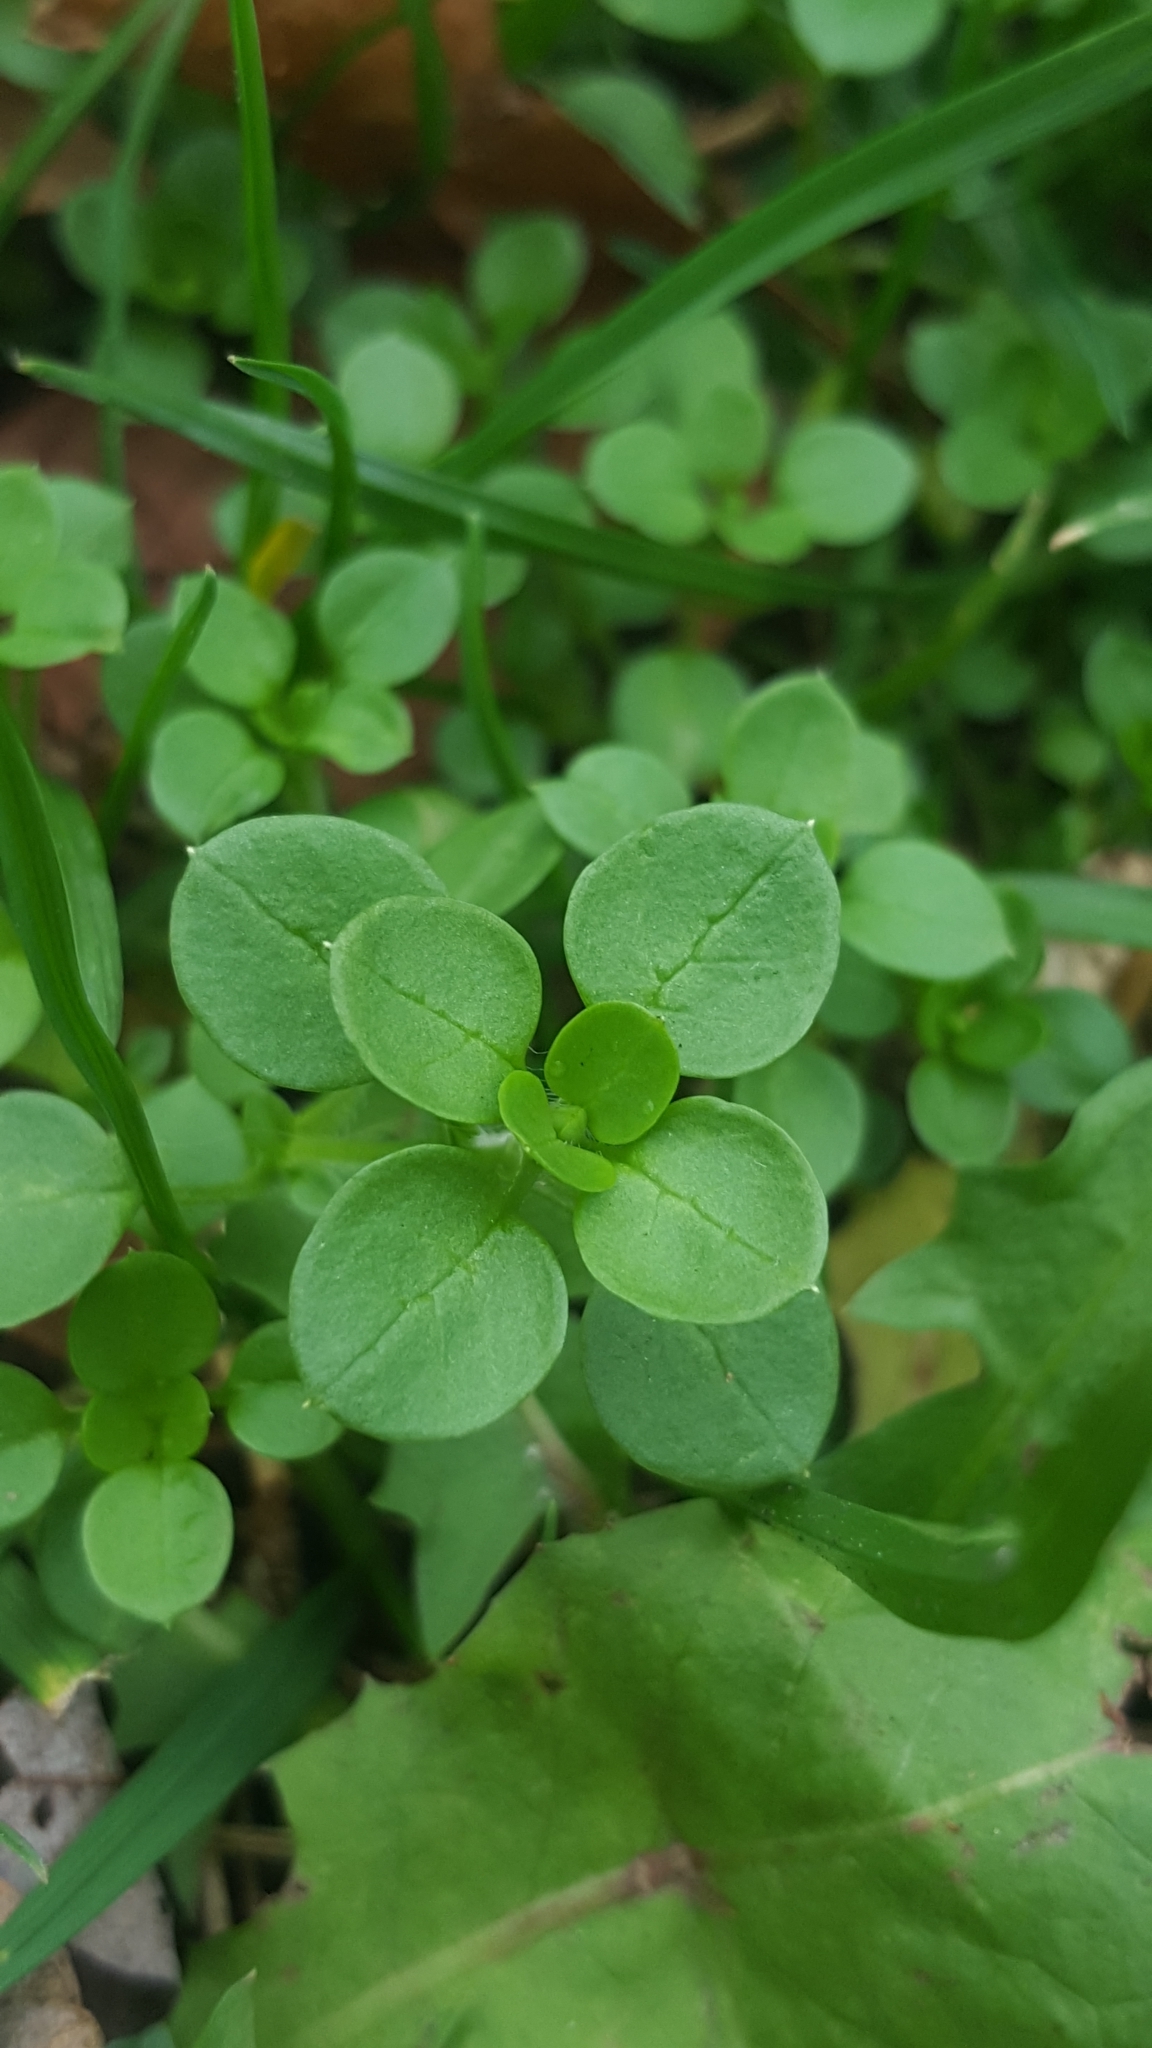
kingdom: Plantae
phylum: Tracheophyta
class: Magnoliopsida
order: Caryophyllales
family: Caryophyllaceae
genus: Stellaria
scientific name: Stellaria media
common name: Common chickweed
